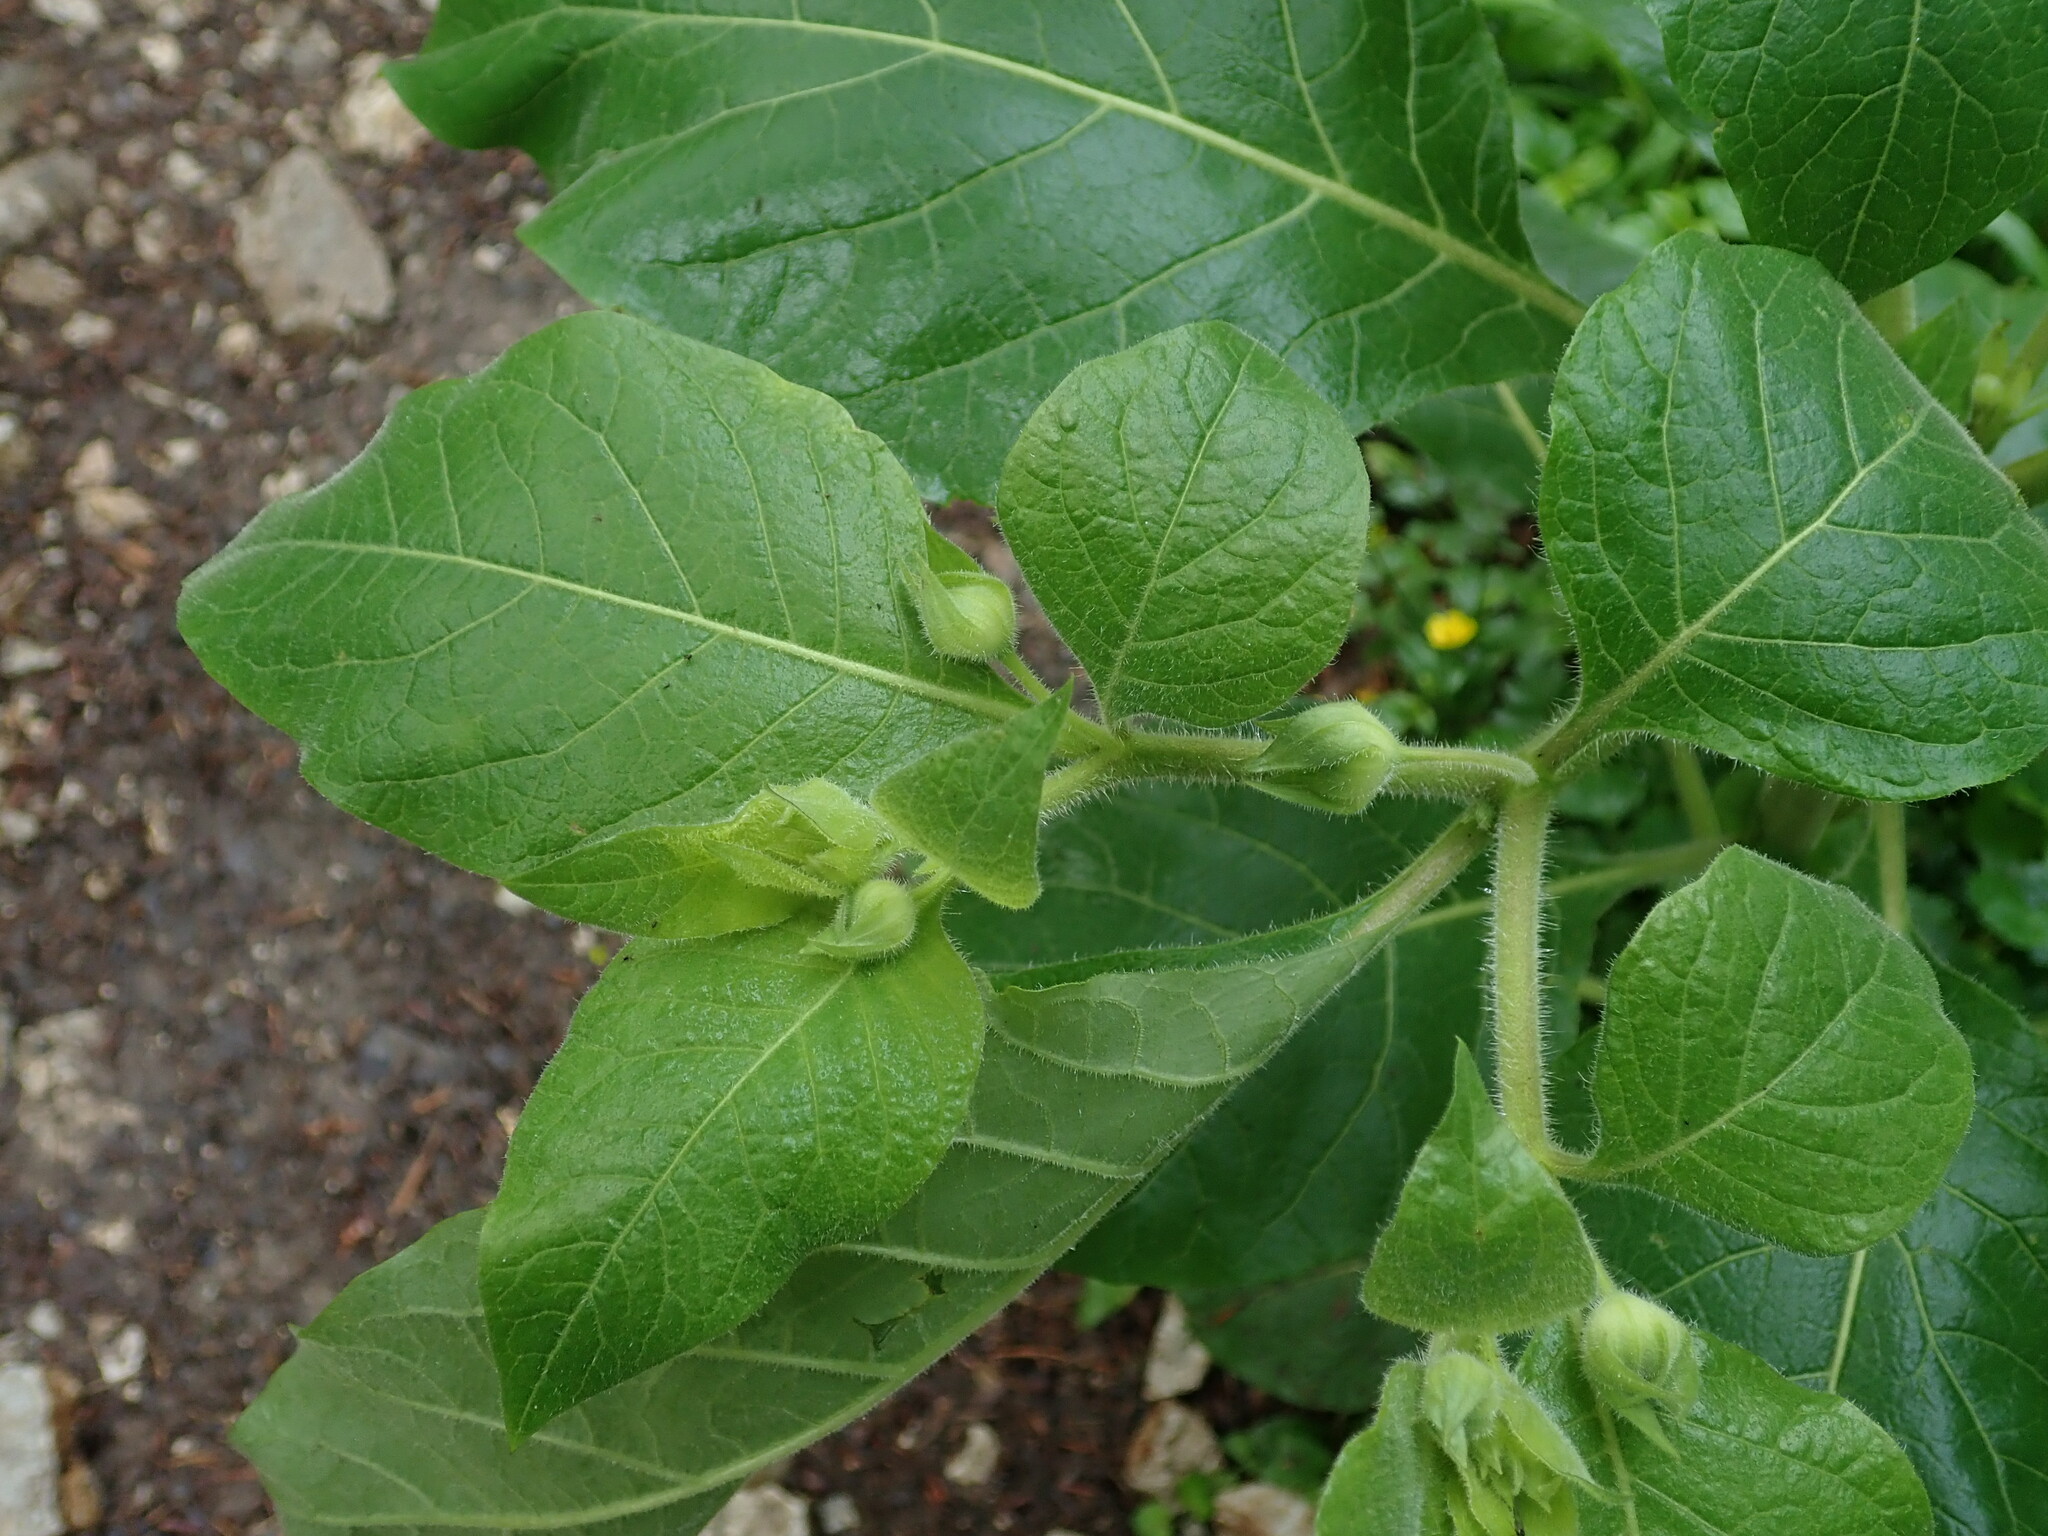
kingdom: Plantae
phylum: Tracheophyta
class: Magnoliopsida
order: Solanales
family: Solanaceae
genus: Atropa
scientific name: Atropa belladonna
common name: Deadly nightshade
